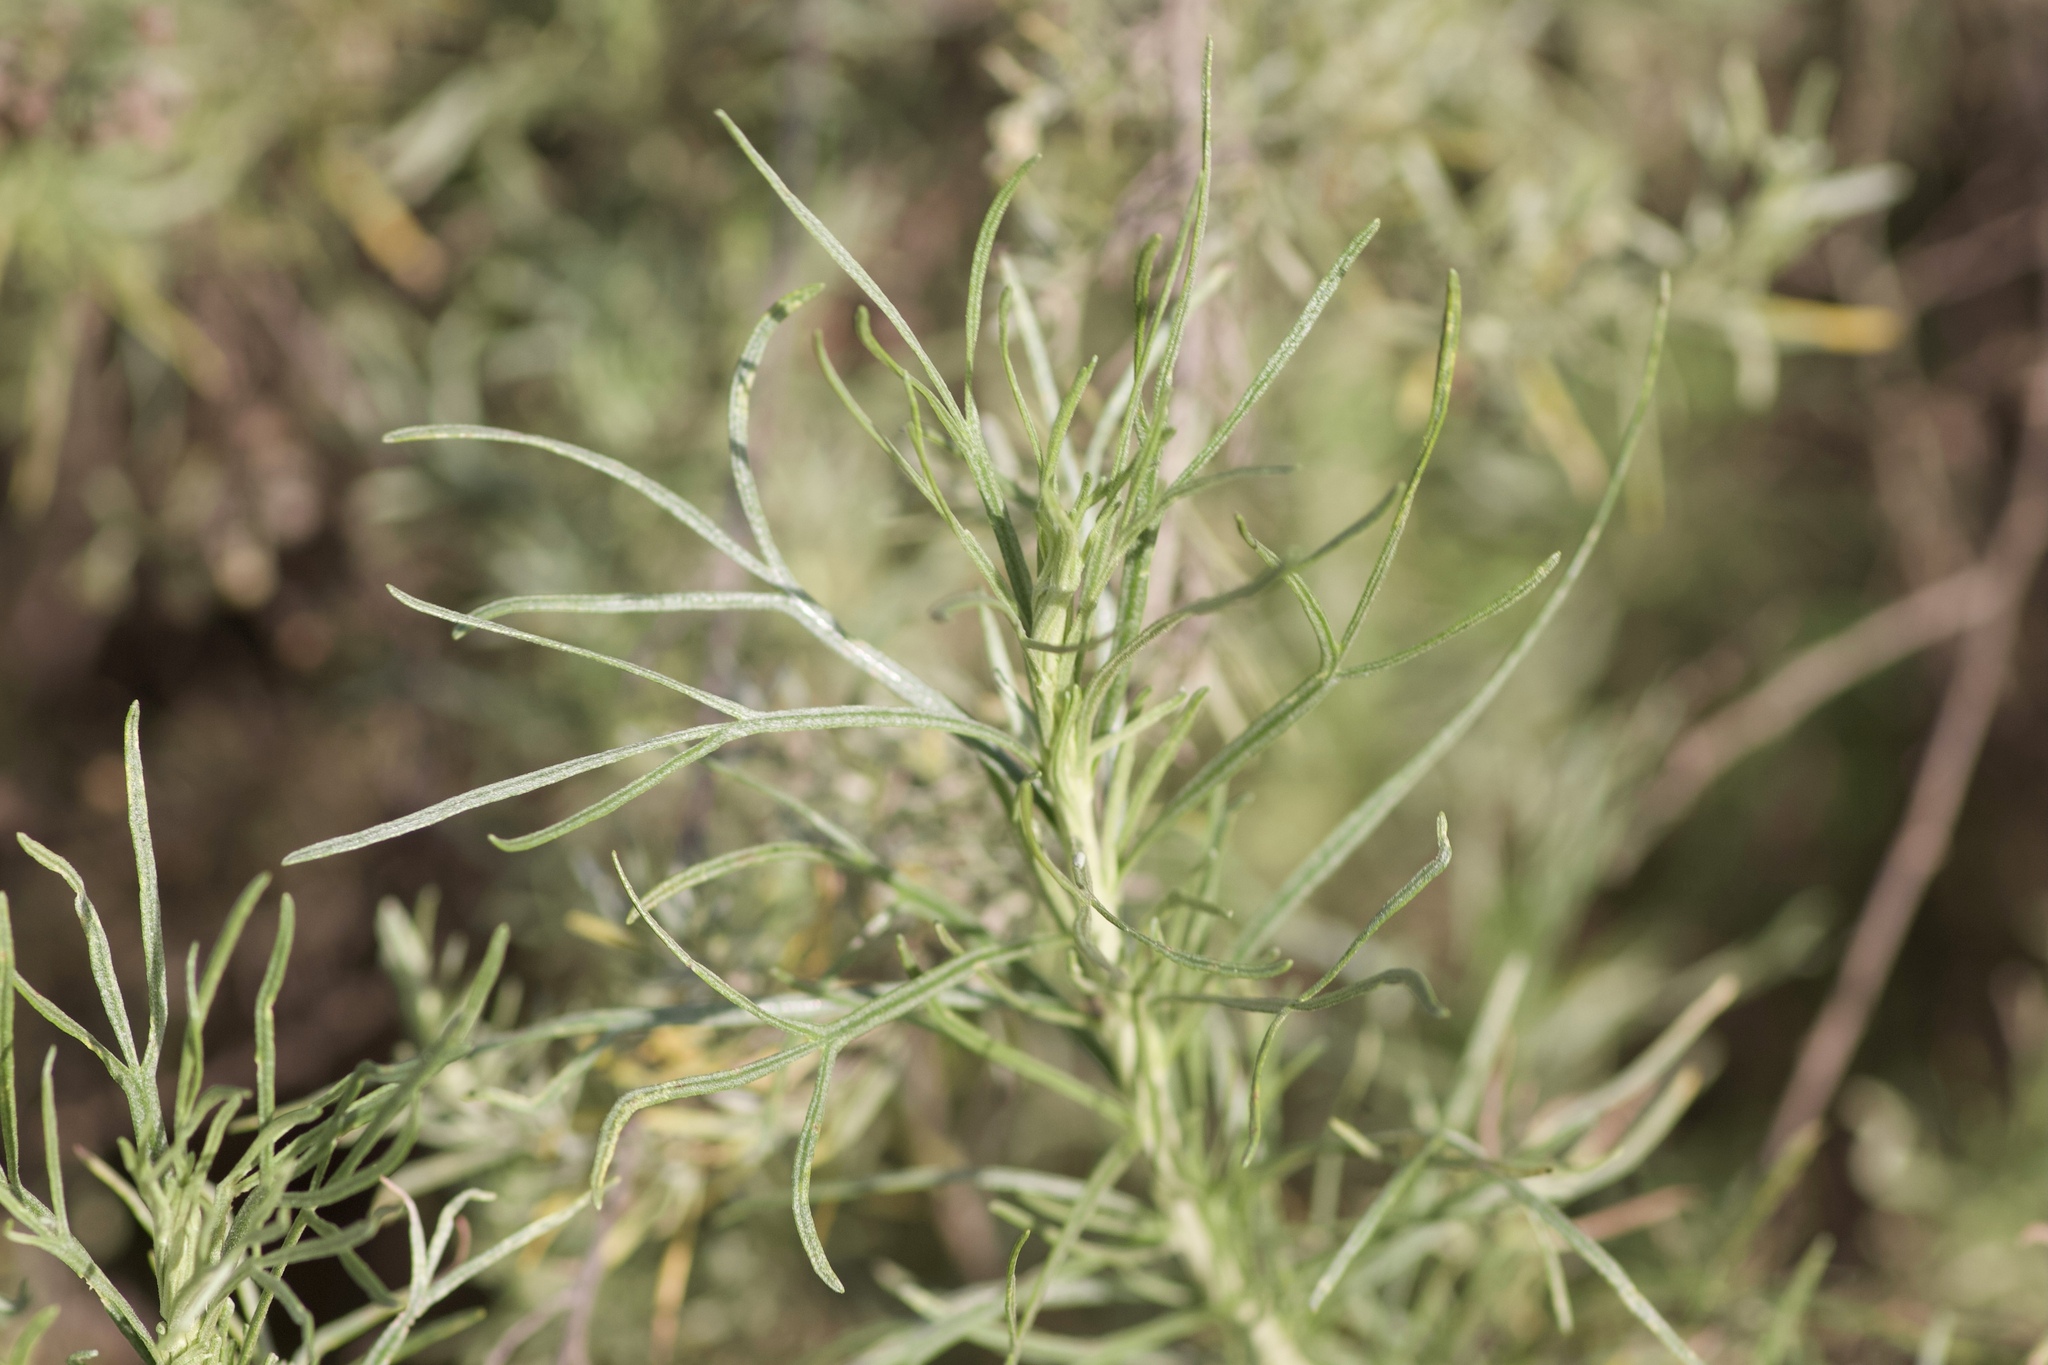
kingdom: Plantae
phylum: Tracheophyta
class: Magnoliopsida
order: Asterales
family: Asteraceae
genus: Artemisia
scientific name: Artemisia californica
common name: California sagebrush
